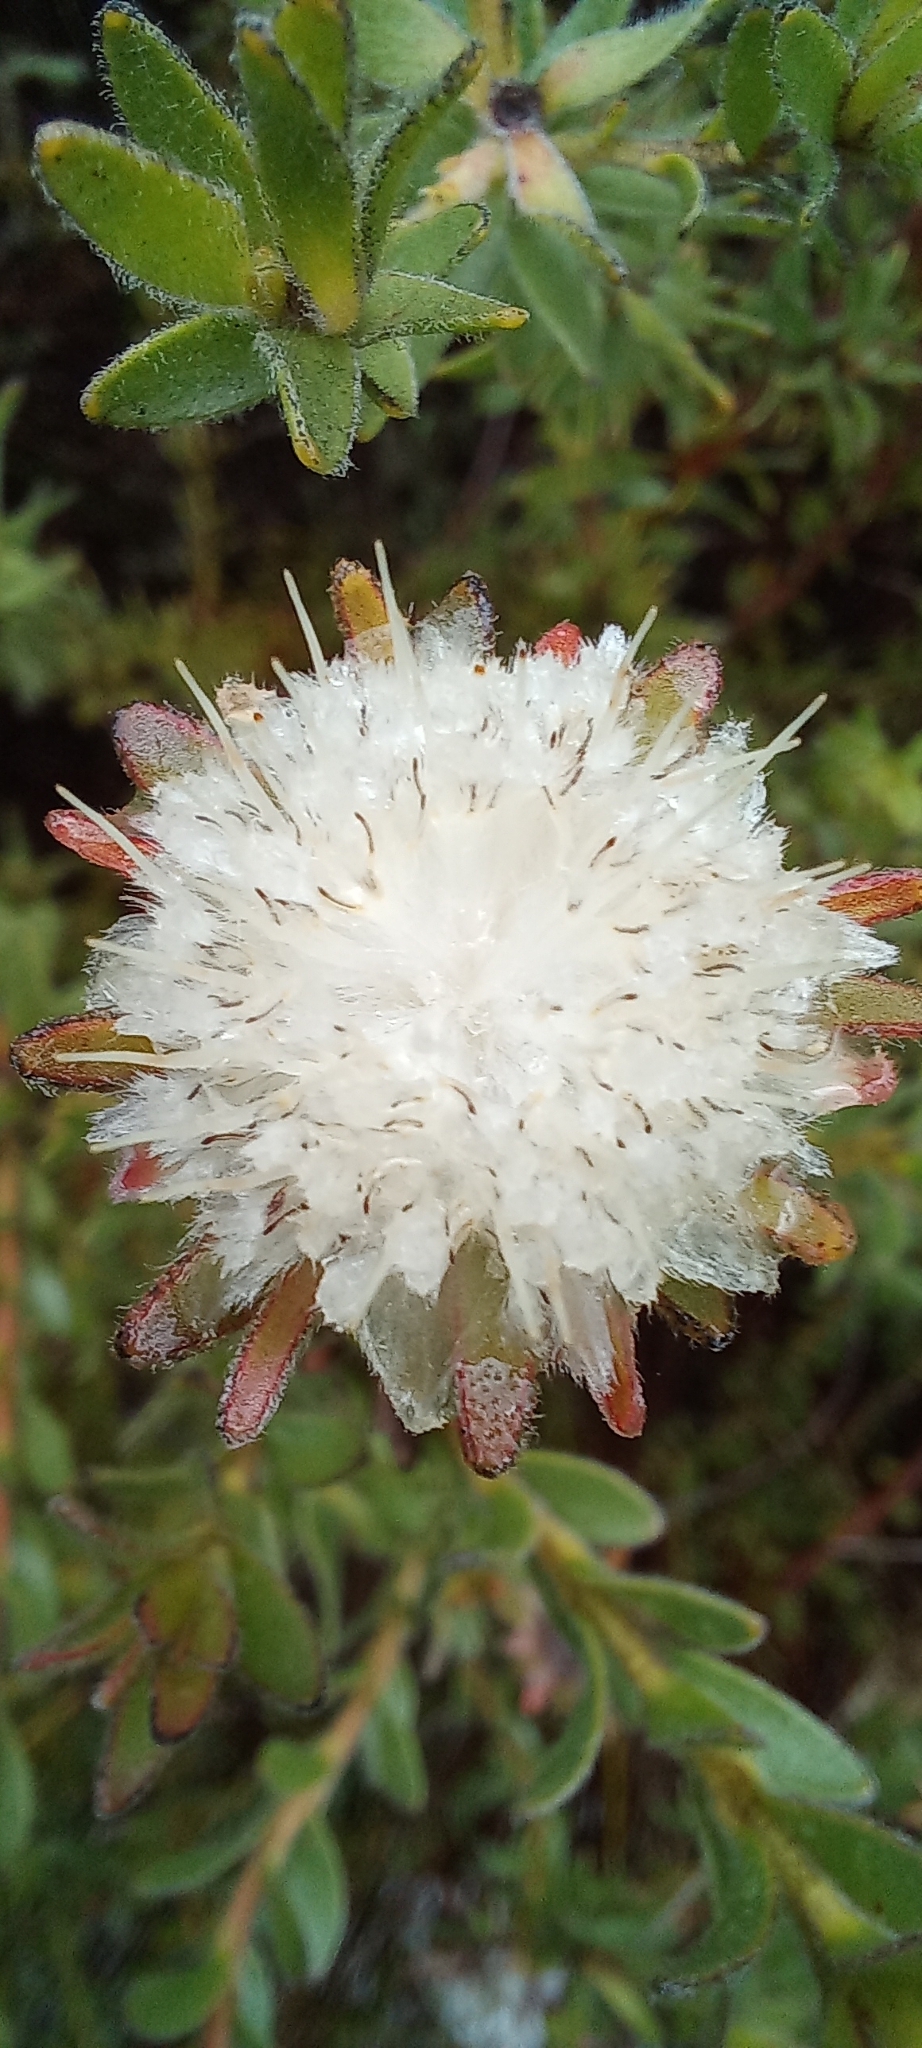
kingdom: Plantae
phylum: Tracheophyta
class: Magnoliopsida
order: Proteales
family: Proteaceae
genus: Diastella
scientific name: Diastella thymelaeoides
